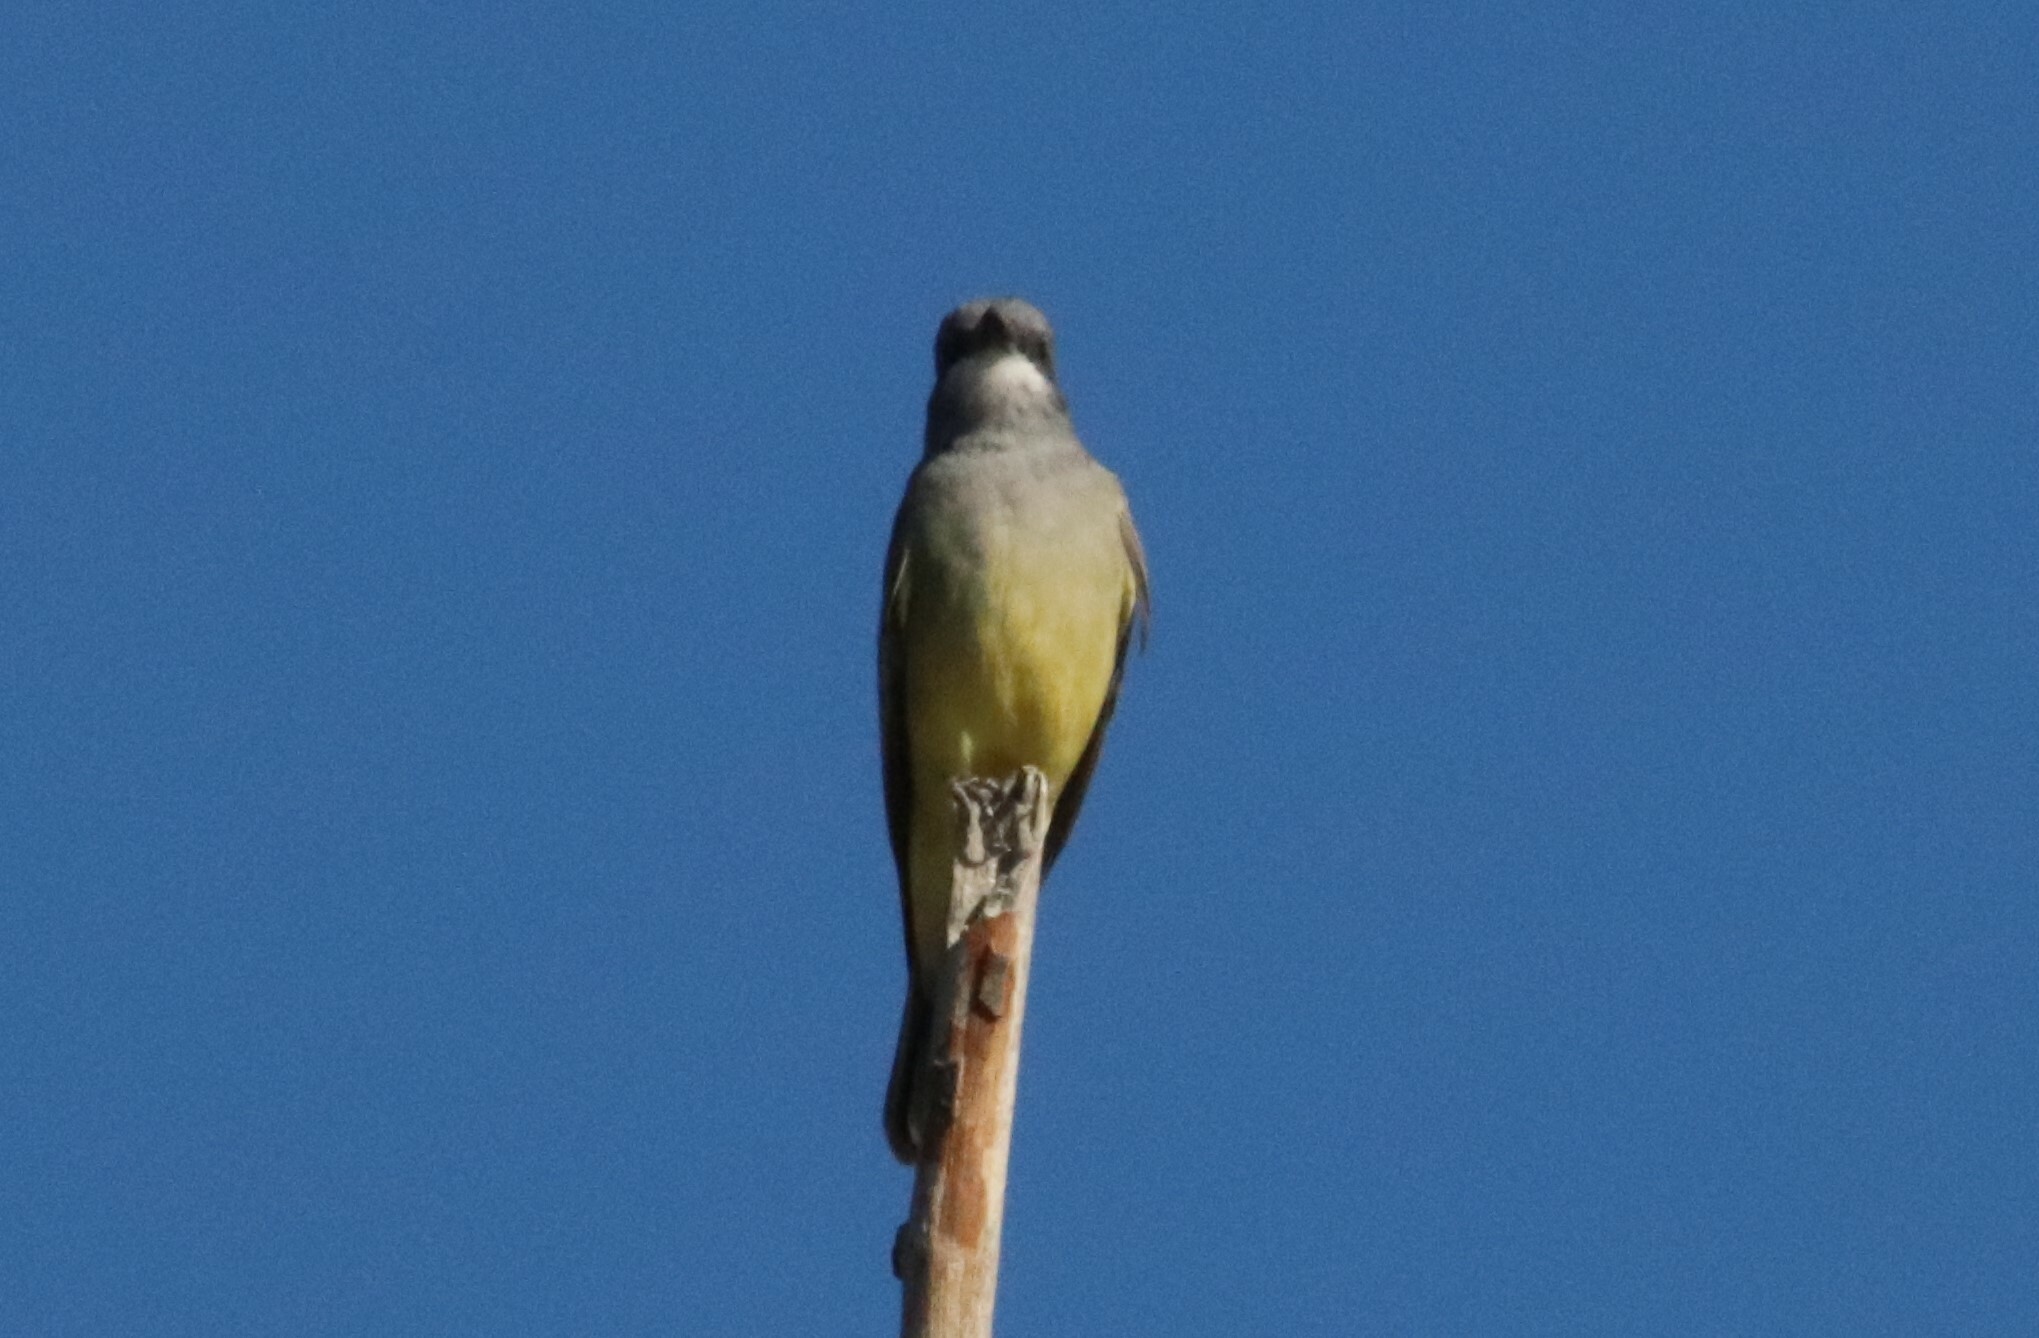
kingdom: Animalia
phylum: Chordata
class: Aves
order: Passeriformes
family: Tyrannidae
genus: Tyrannus
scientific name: Tyrannus vociferans
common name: Cassin's kingbird
